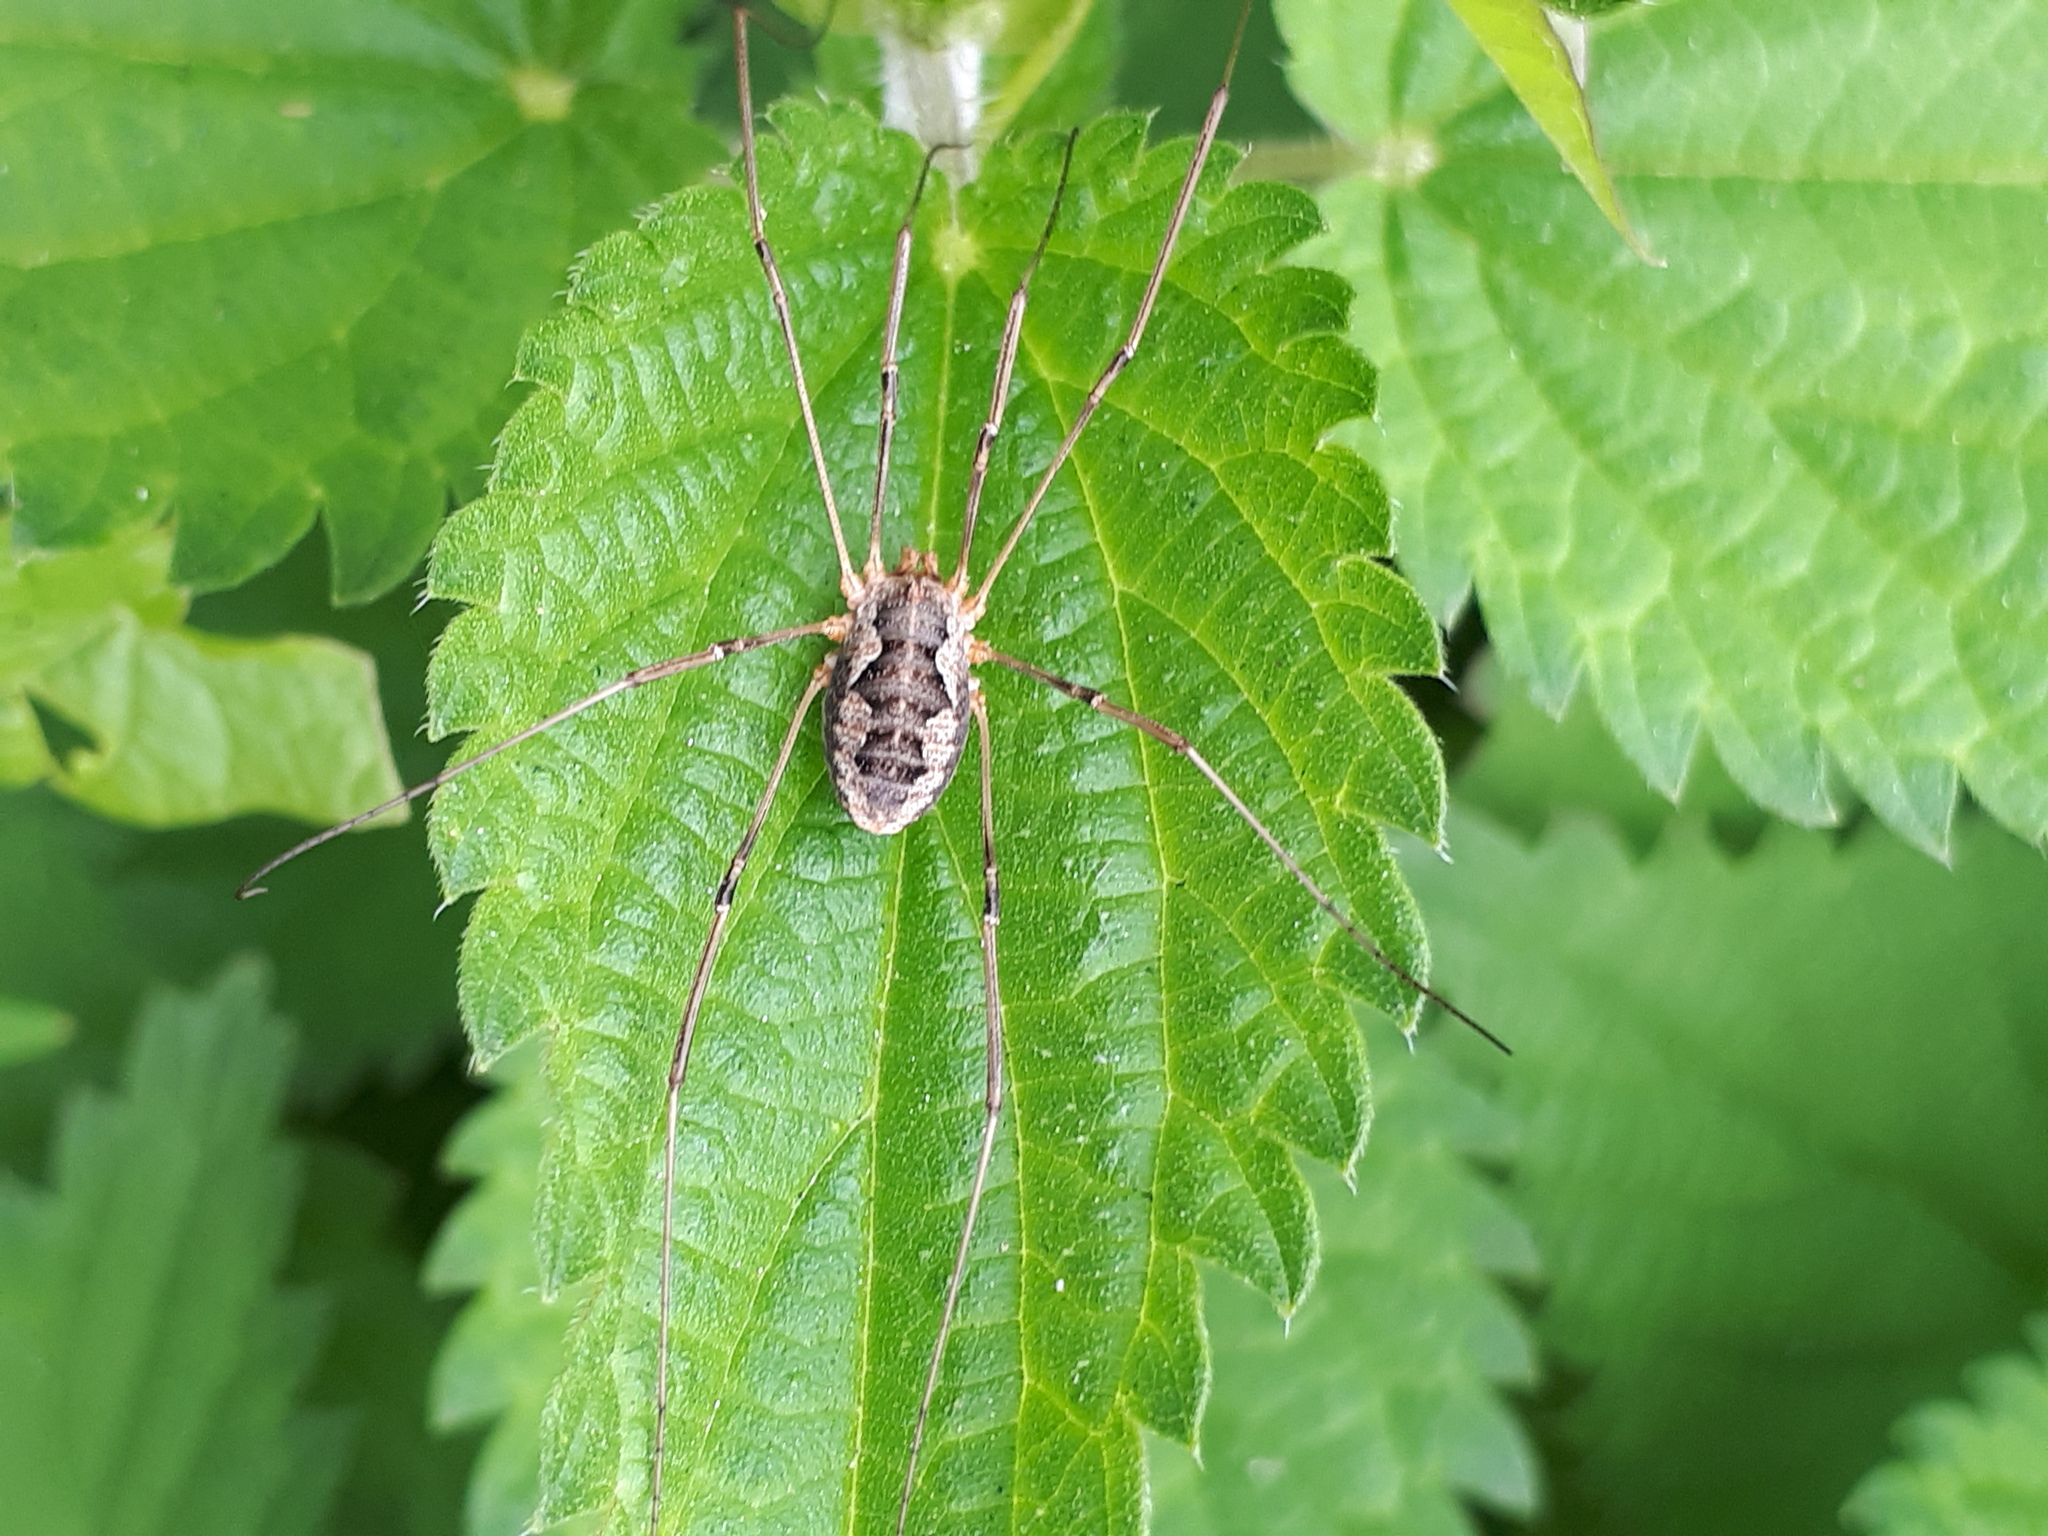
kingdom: Animalia
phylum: Arthropoda
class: Arachnida
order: Opiliones
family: Phalangiidae
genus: Phalangium
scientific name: Phalangium opilio
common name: Daddy longleg
